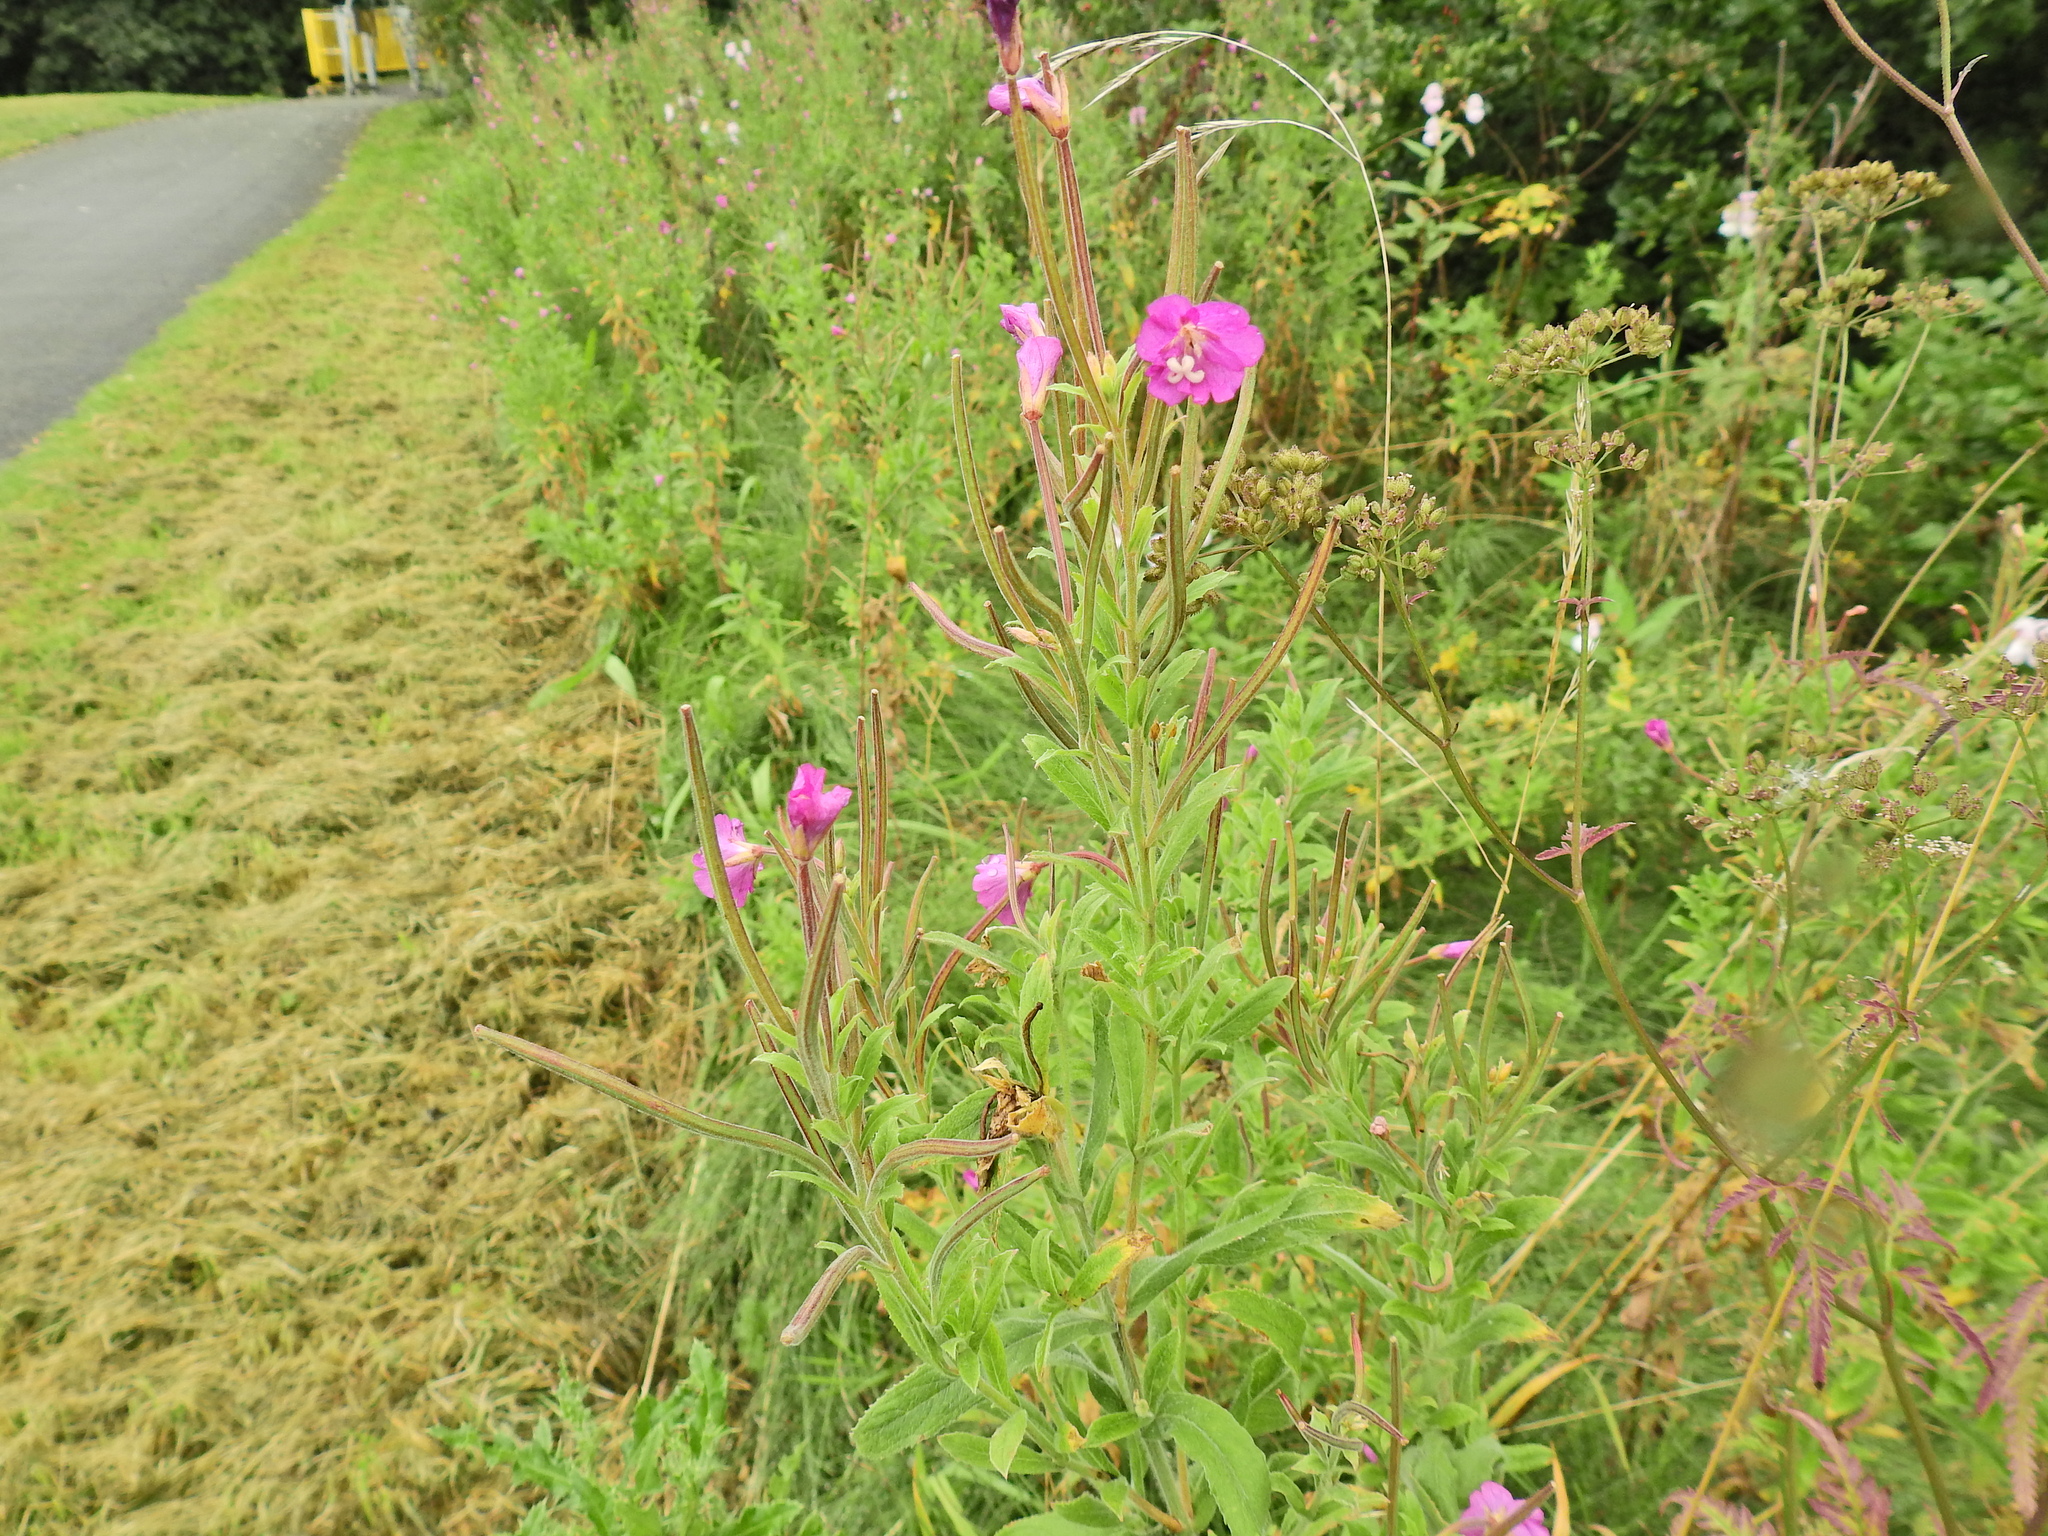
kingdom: Plantae
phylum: Tracheophyta
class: Magnoliopsida
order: Myrtales
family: Onagraceae
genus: Epilobium
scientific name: Epilobium hirsutum
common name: Great willowherb
